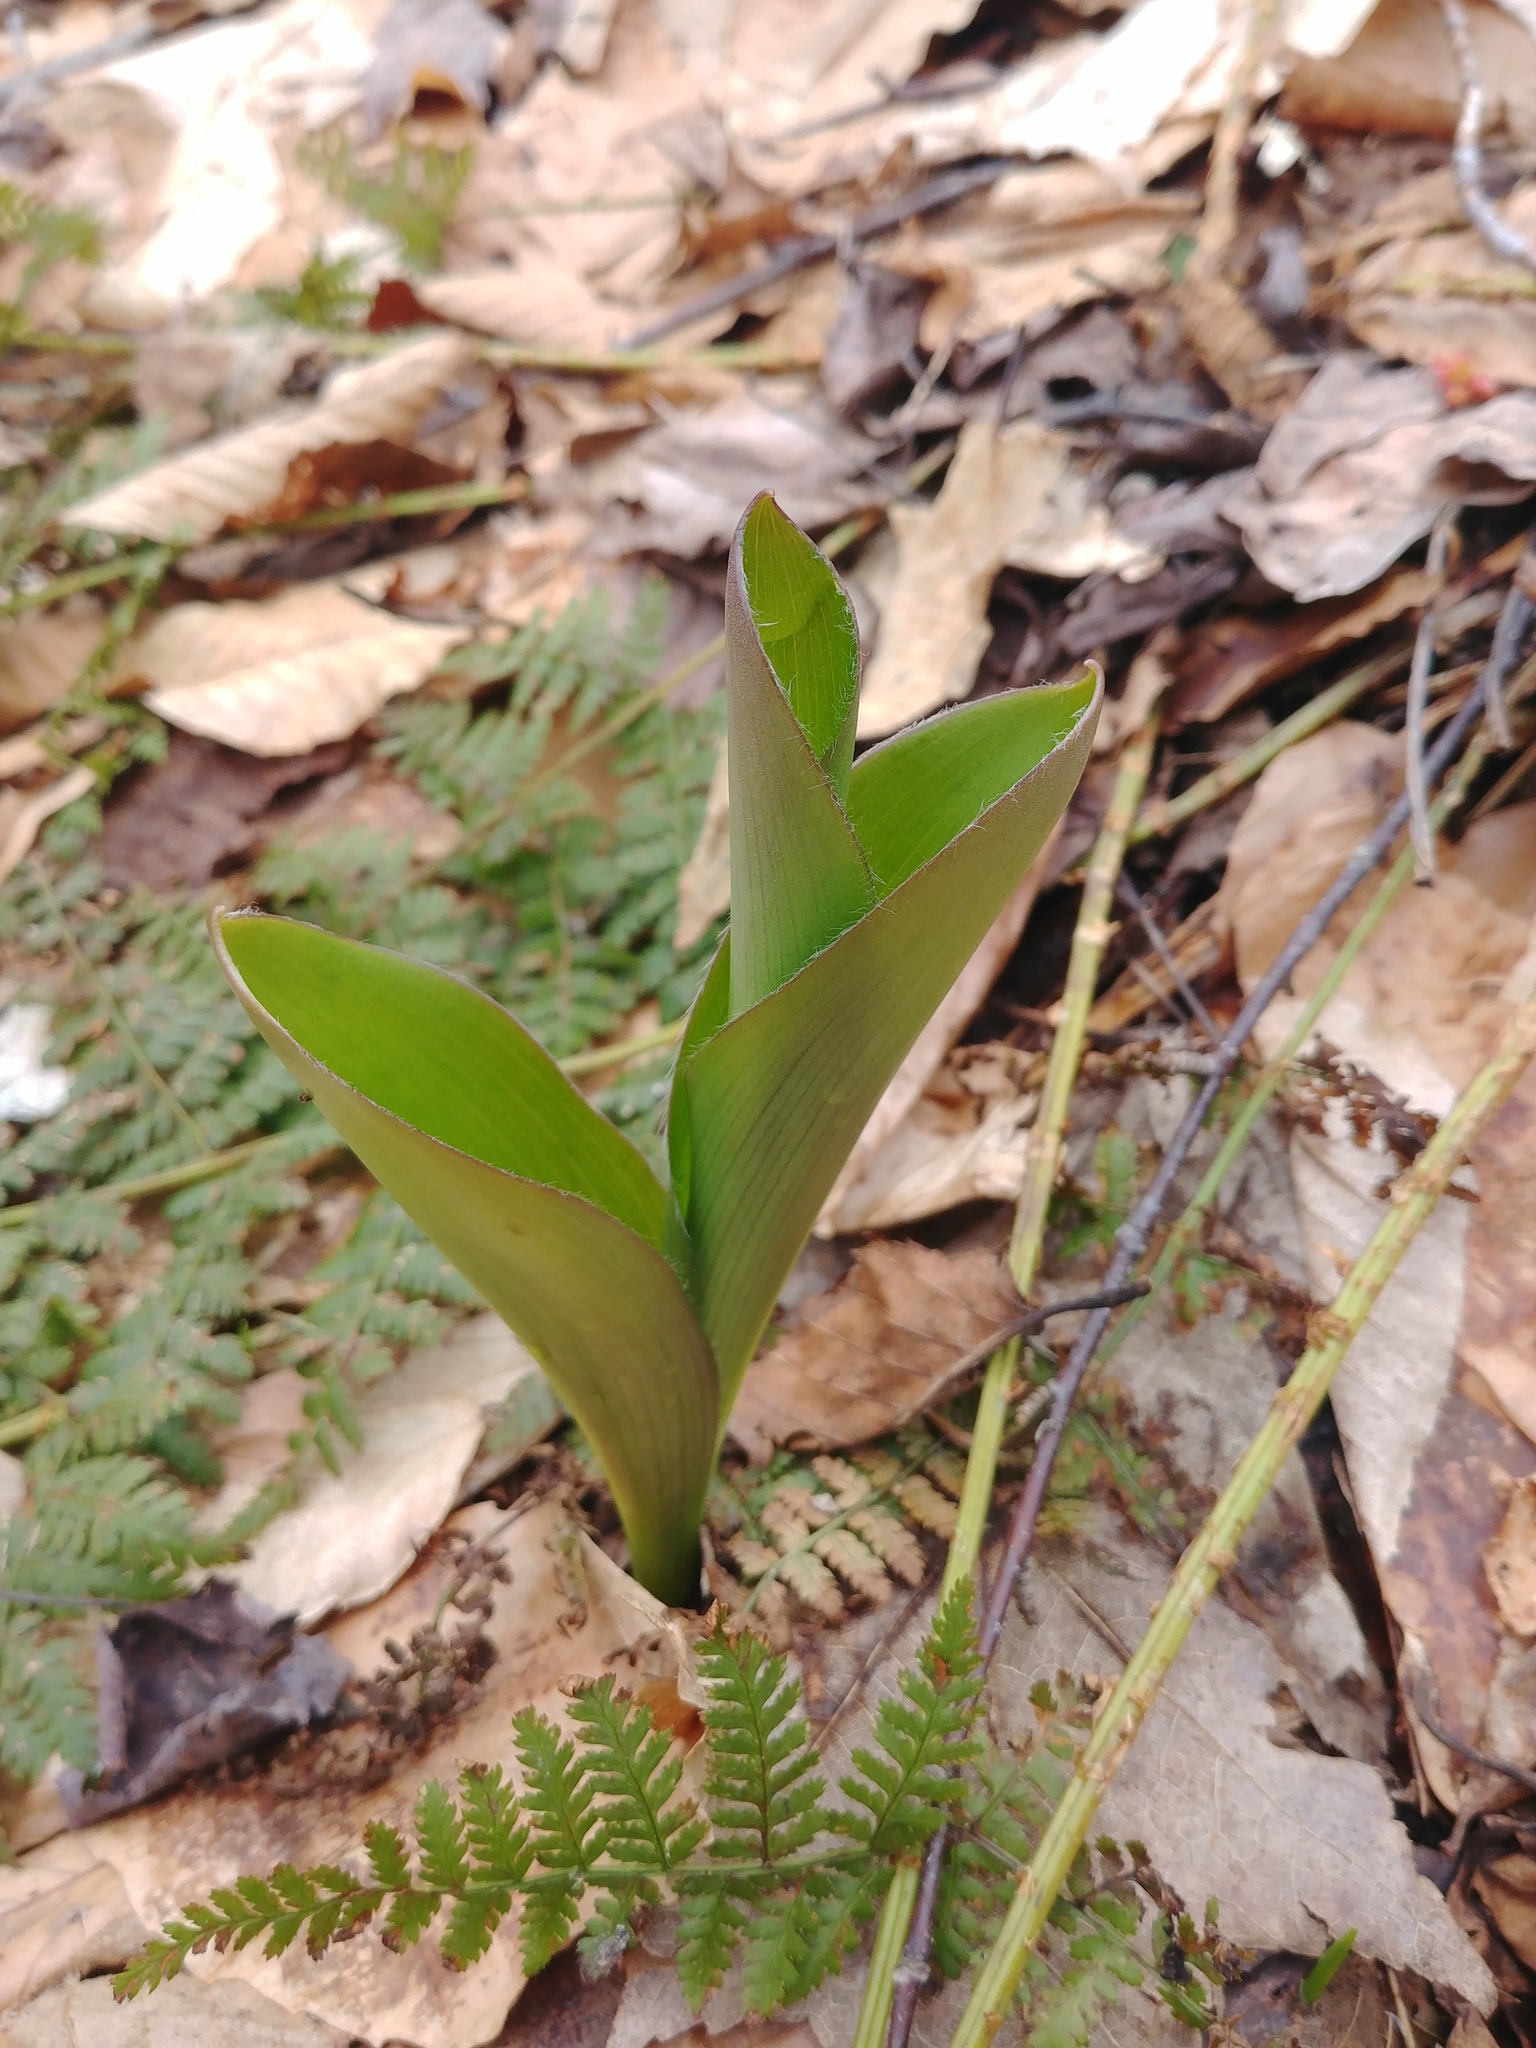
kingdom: Plantae
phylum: Tracheophyta
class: Liliopsida
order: Liliales
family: Liliaceae
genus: Clintonia
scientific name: Clintonia borealis
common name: Yellow clintonia
